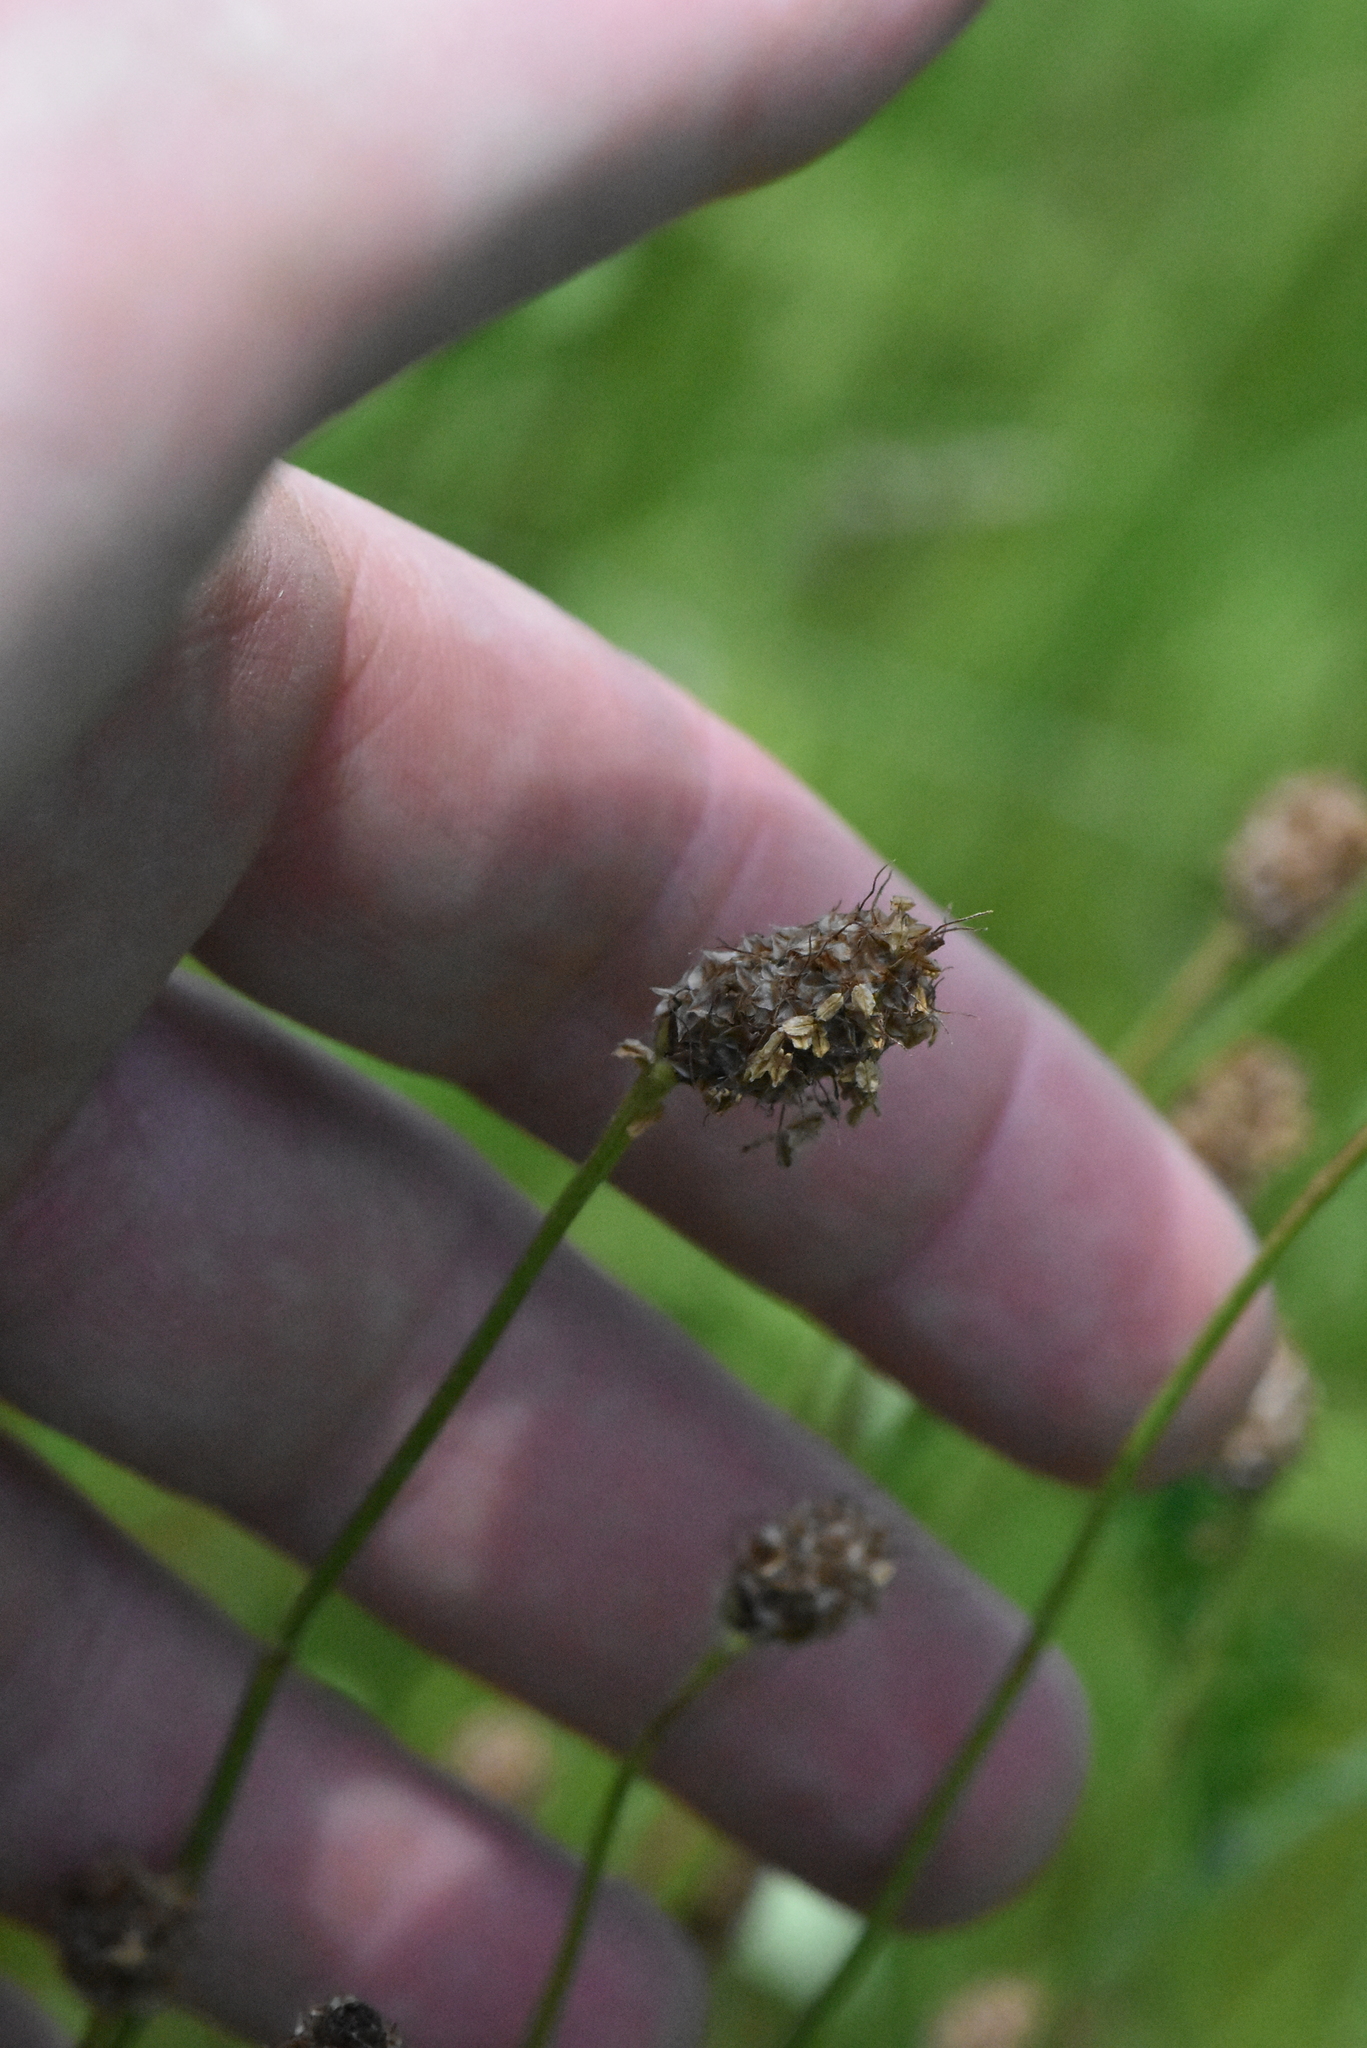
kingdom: Plantae
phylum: Tracheophyta
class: Magnoliopsida
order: Lamiales
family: Plantaginaceae
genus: Plantago
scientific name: Plantago lanceolata
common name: Ribwort plantain
